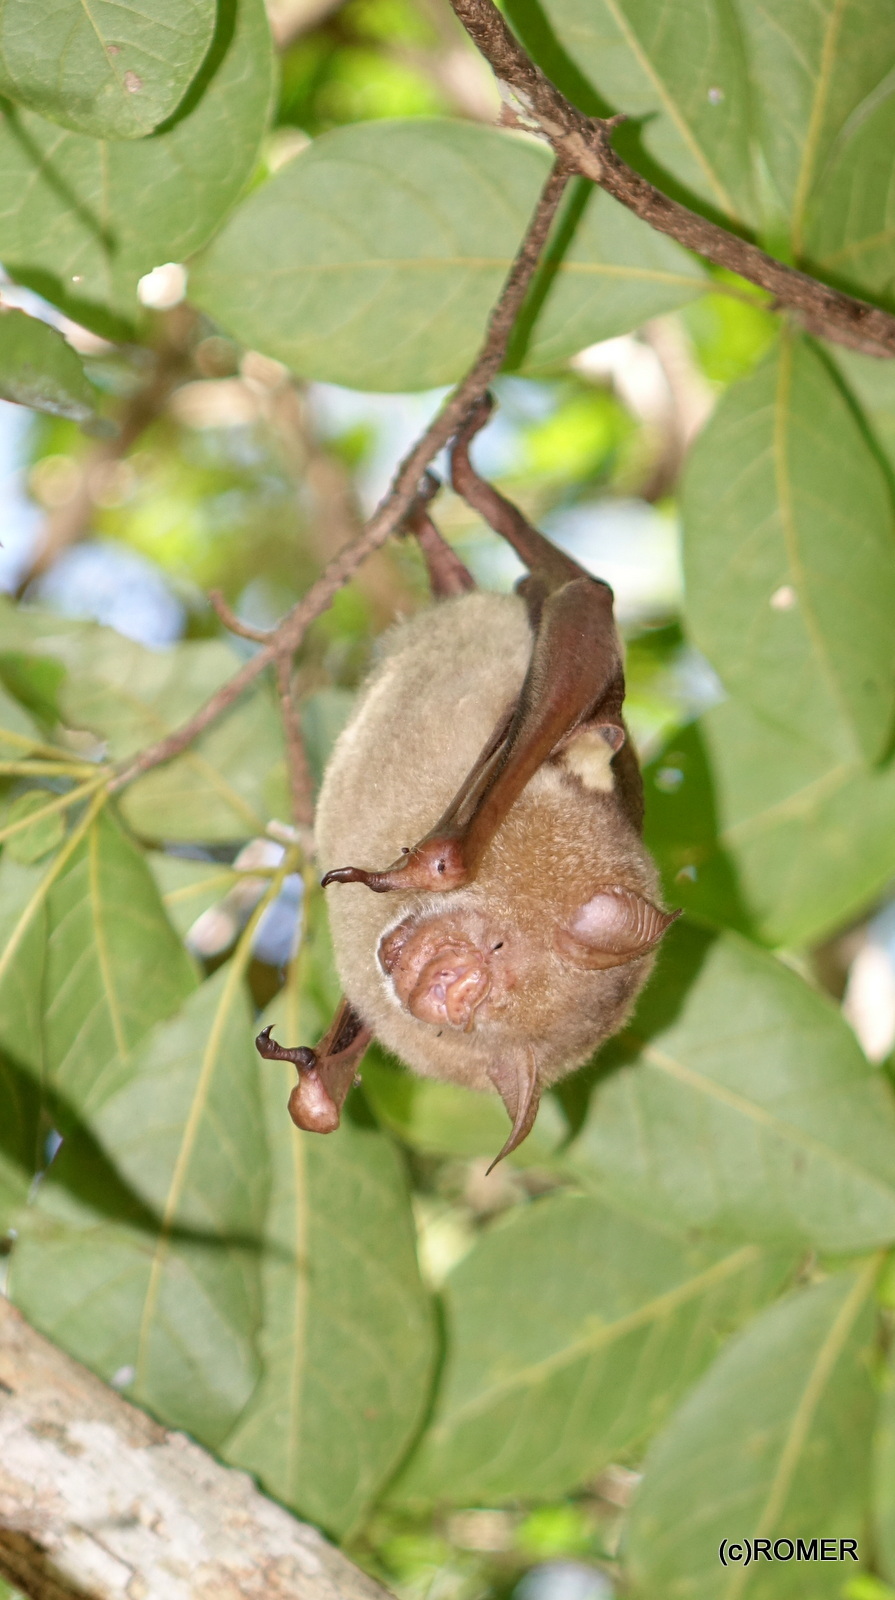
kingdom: Animalia
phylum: Chordata
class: Mammalia
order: Chiroptera
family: Hipposideridae
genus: Macronycteris
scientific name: Macronycteris commersonii
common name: Commerson's leaf-nosed bat
